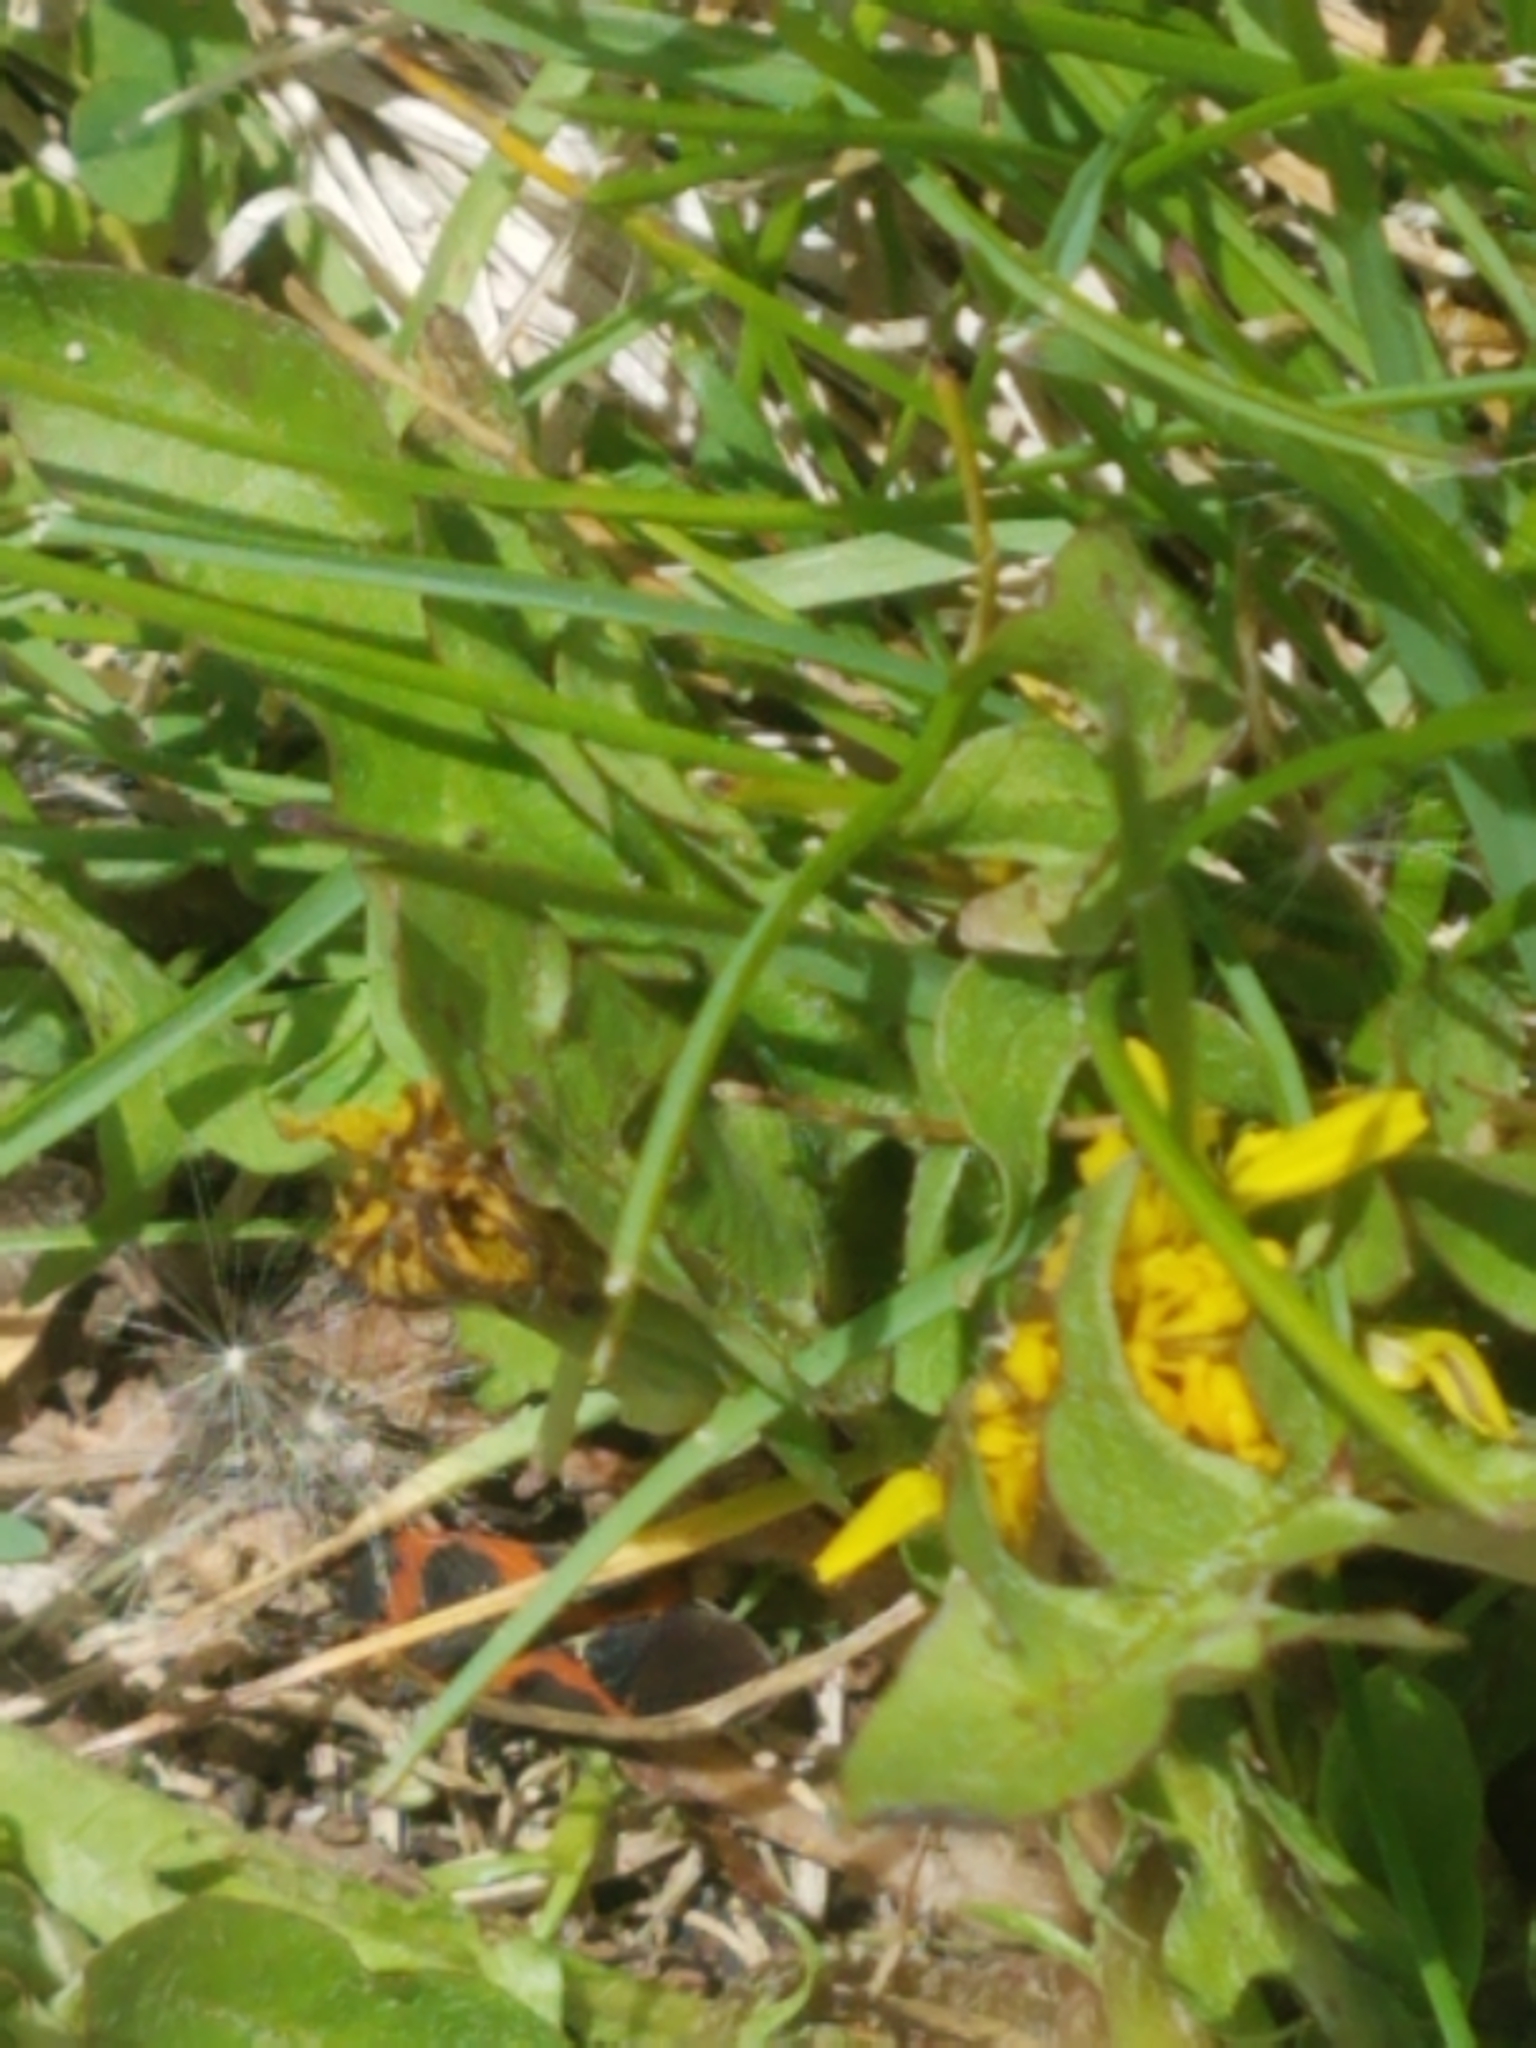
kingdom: Animalia
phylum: Arthropoda
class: Insecta
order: Hemiptera
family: Lygaeidae
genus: Lygaeus
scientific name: Lygaeus kalmii
